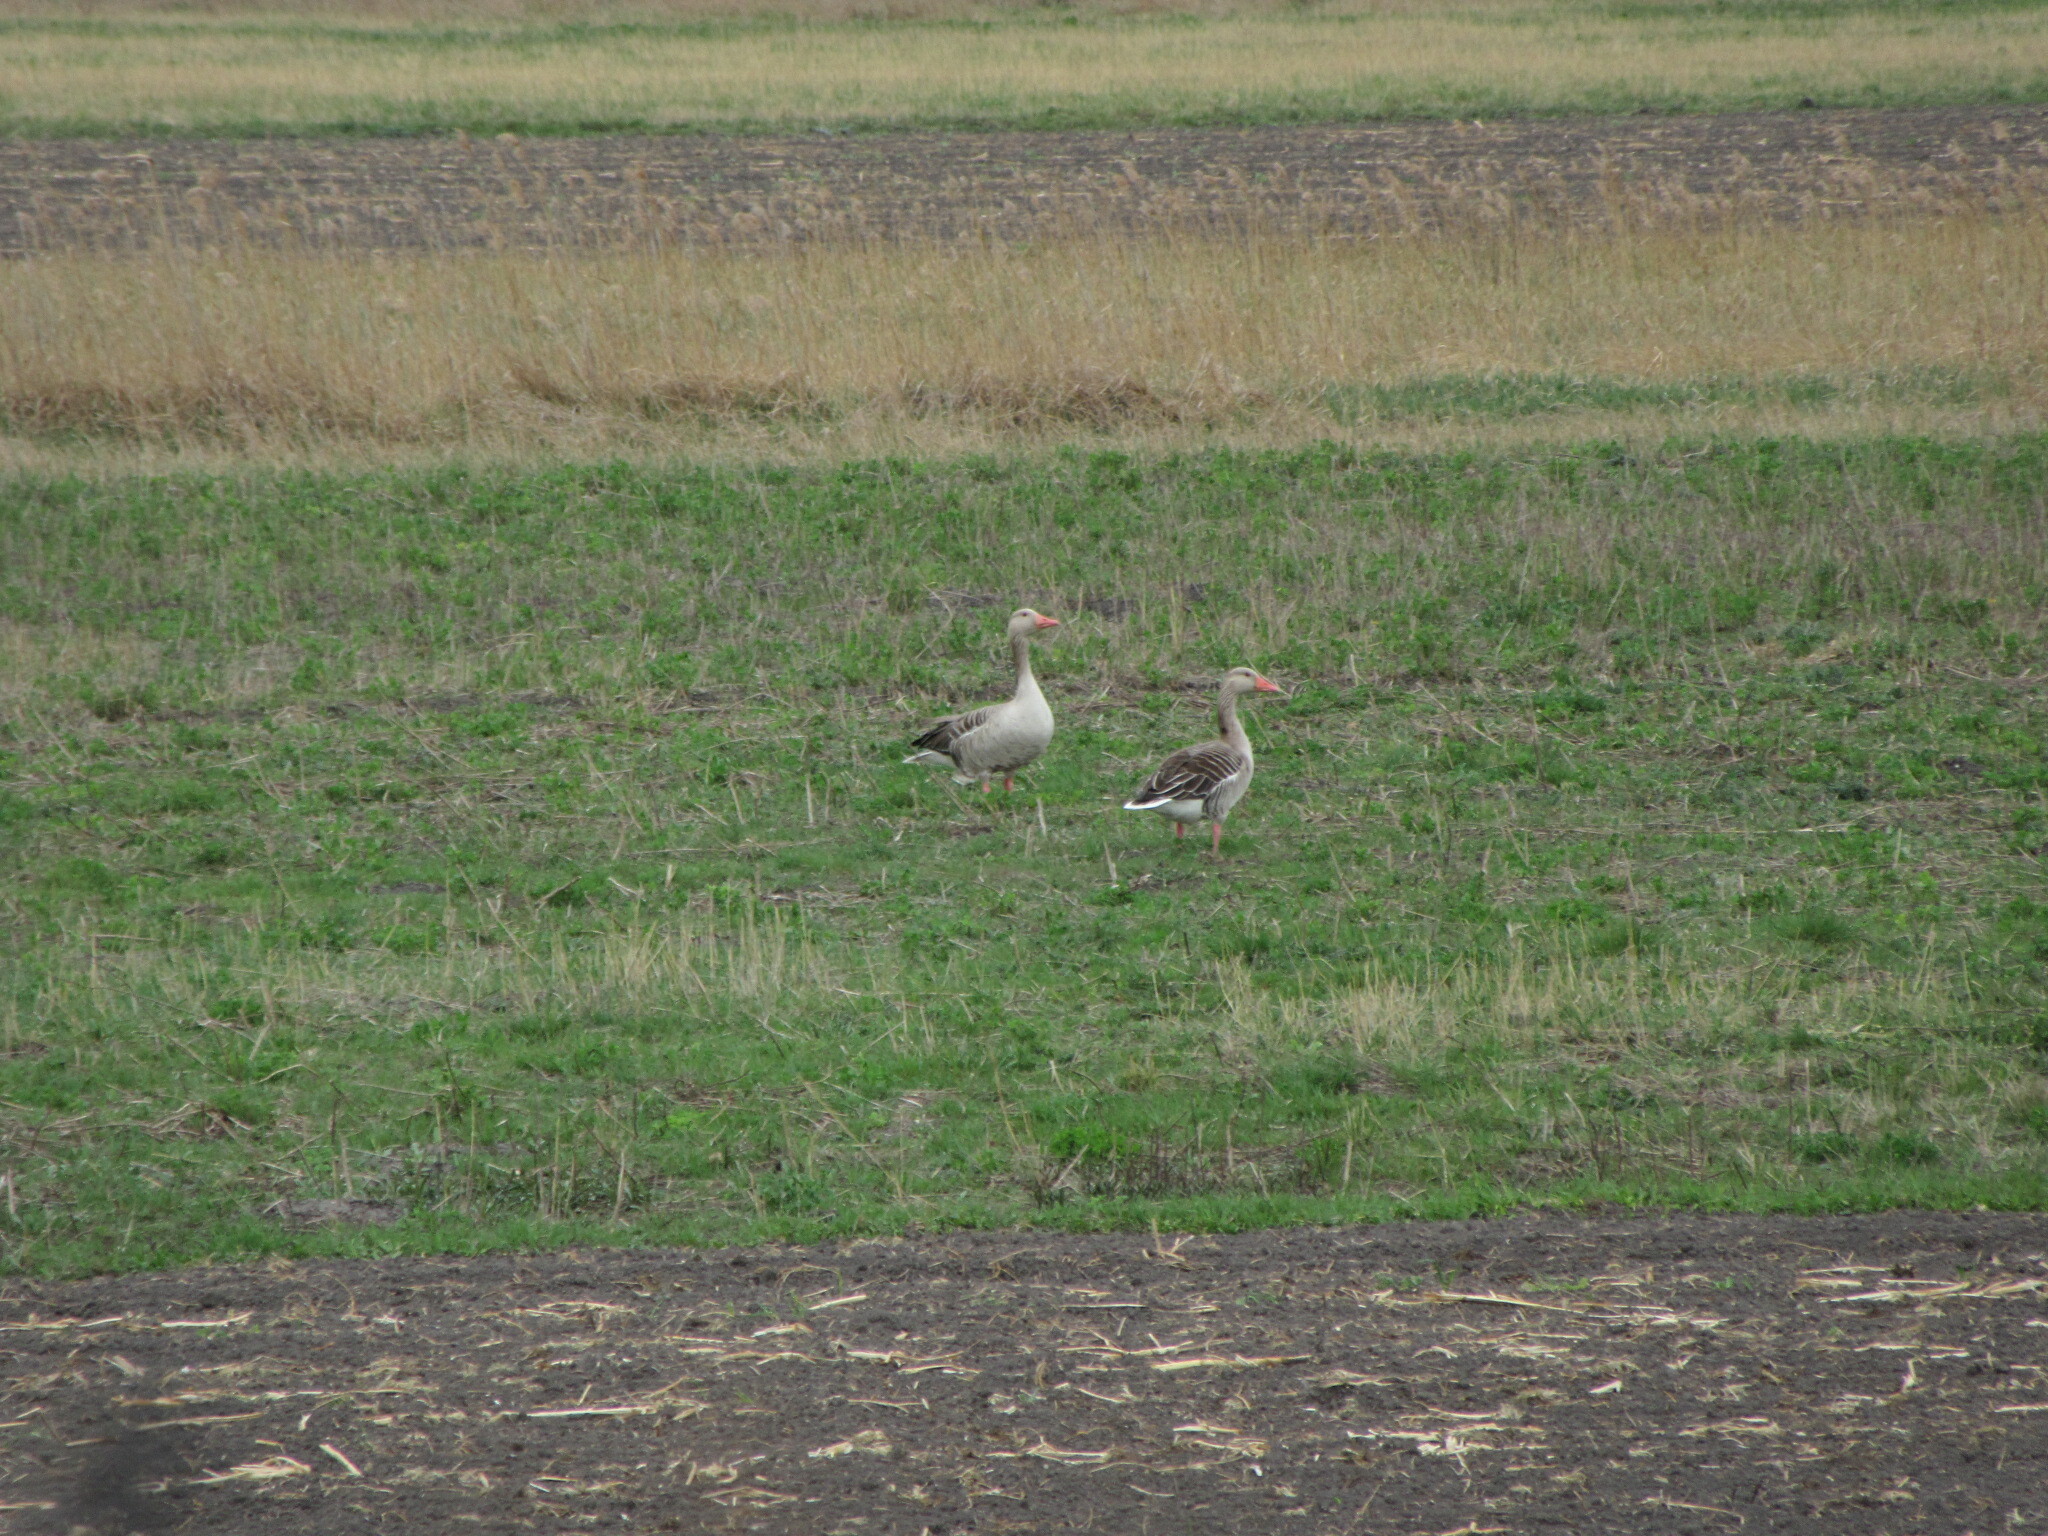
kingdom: Animalia
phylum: Chordata
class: Aves
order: Anseriformes
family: Anatidae
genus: Anser
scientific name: Anser anser
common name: Greylag goose
